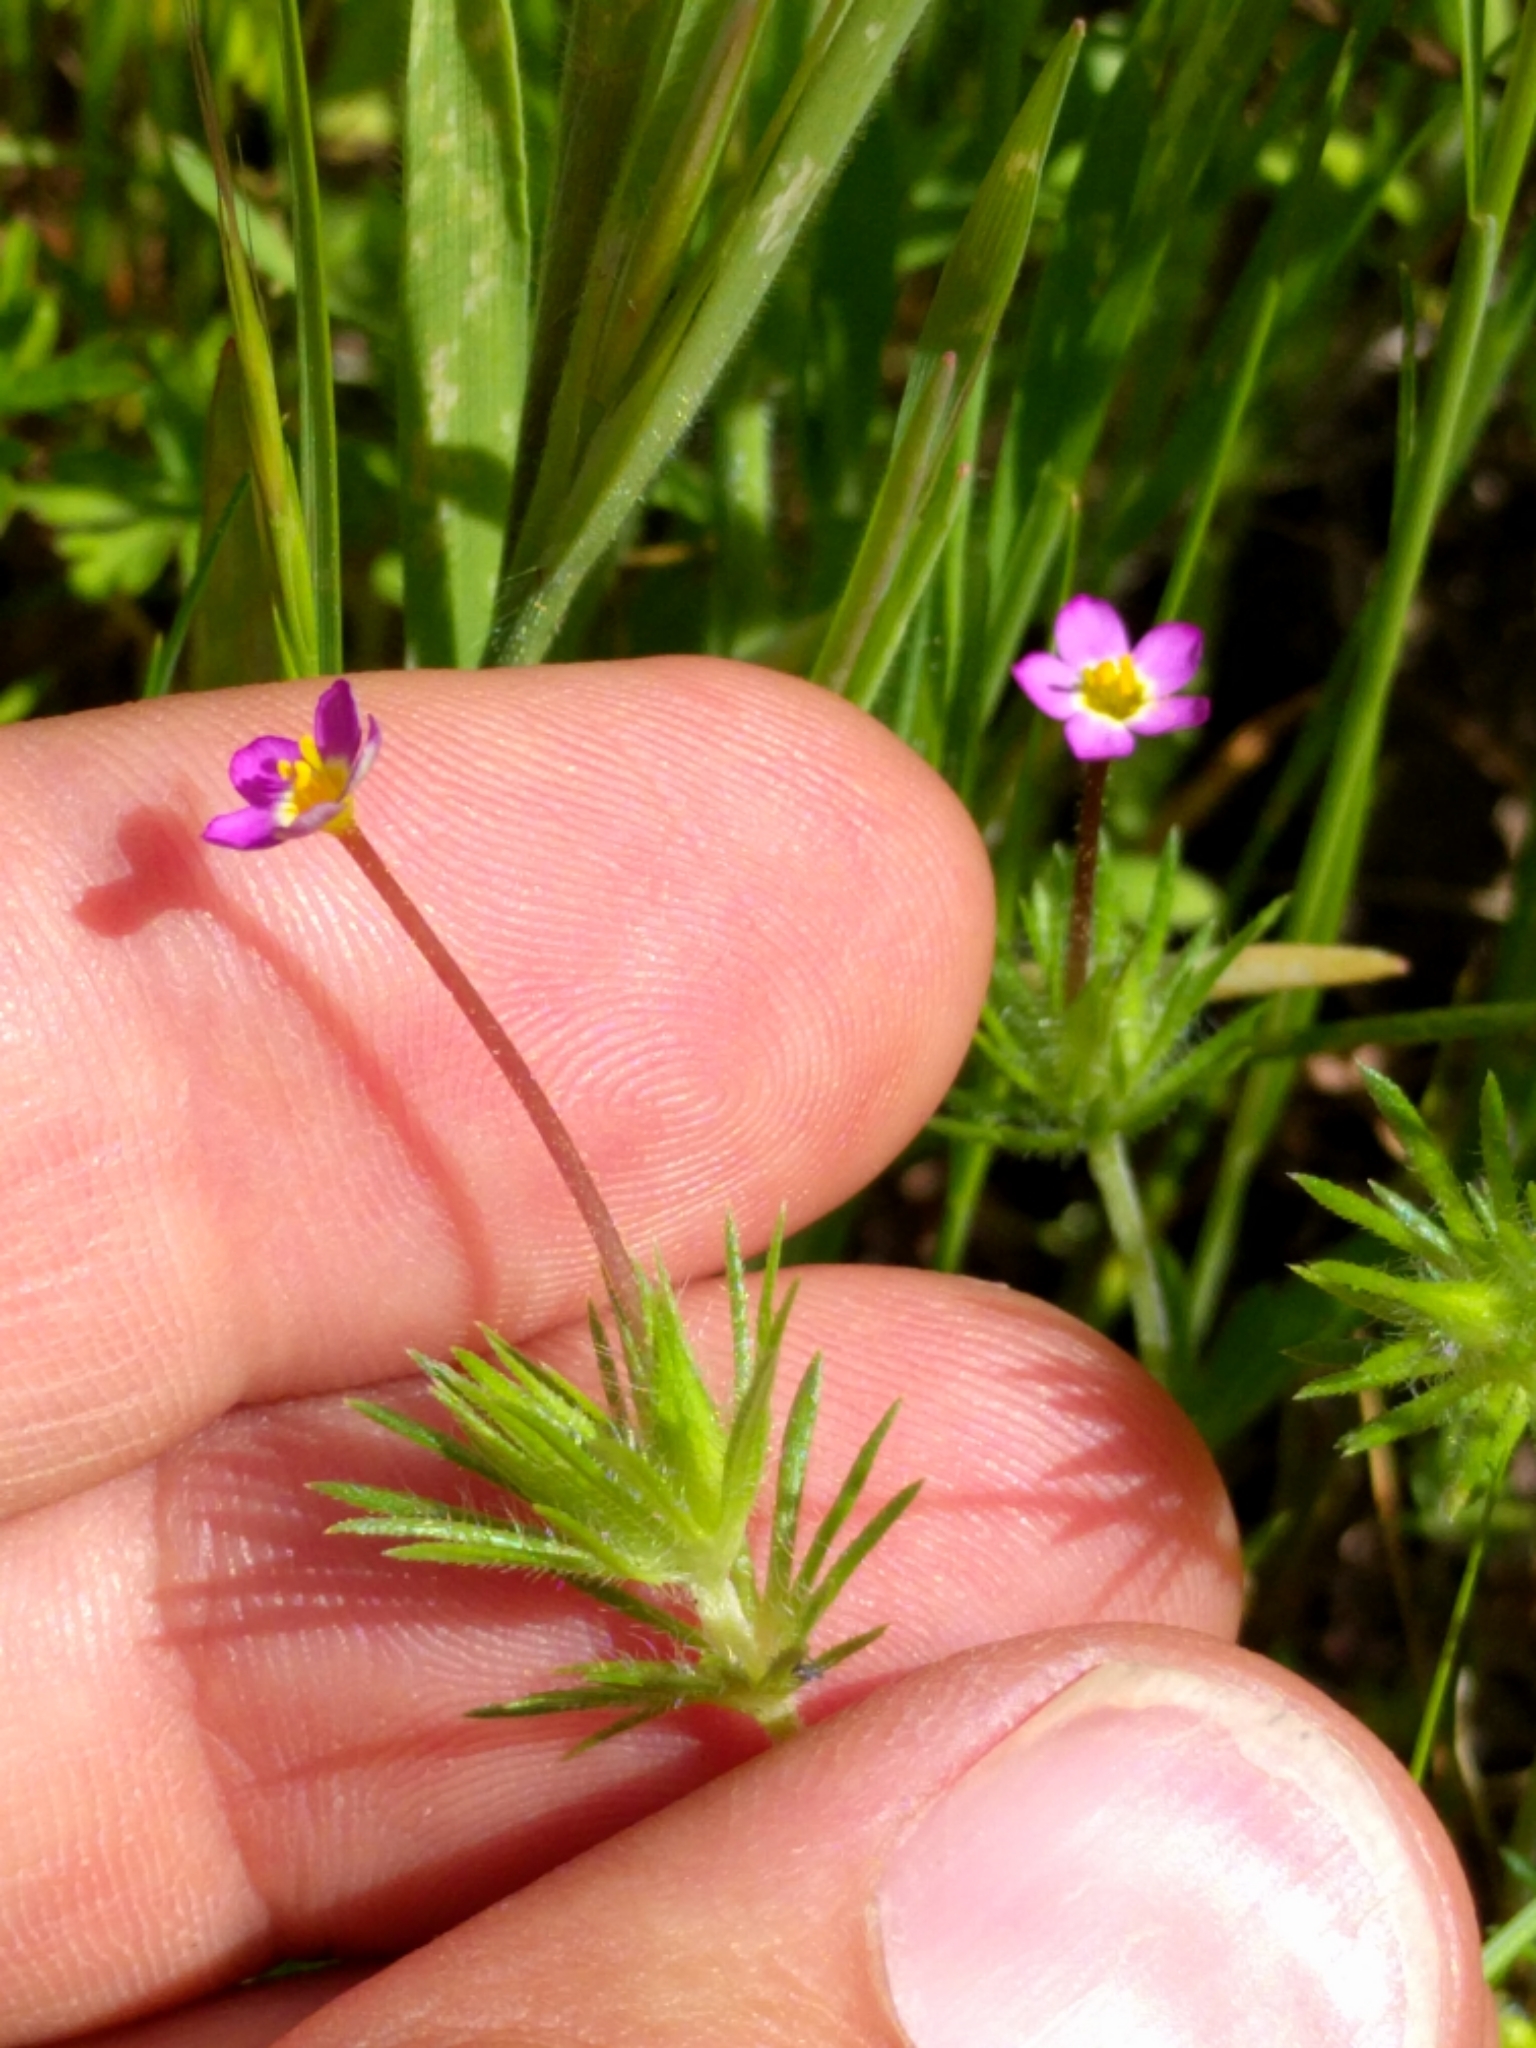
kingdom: Plantae
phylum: Tracheophyta
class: Magnoliopsida
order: Ericales
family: Polemoniaceae
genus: Leptosiphon
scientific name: Leptosiphon bicolor
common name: True babystars
